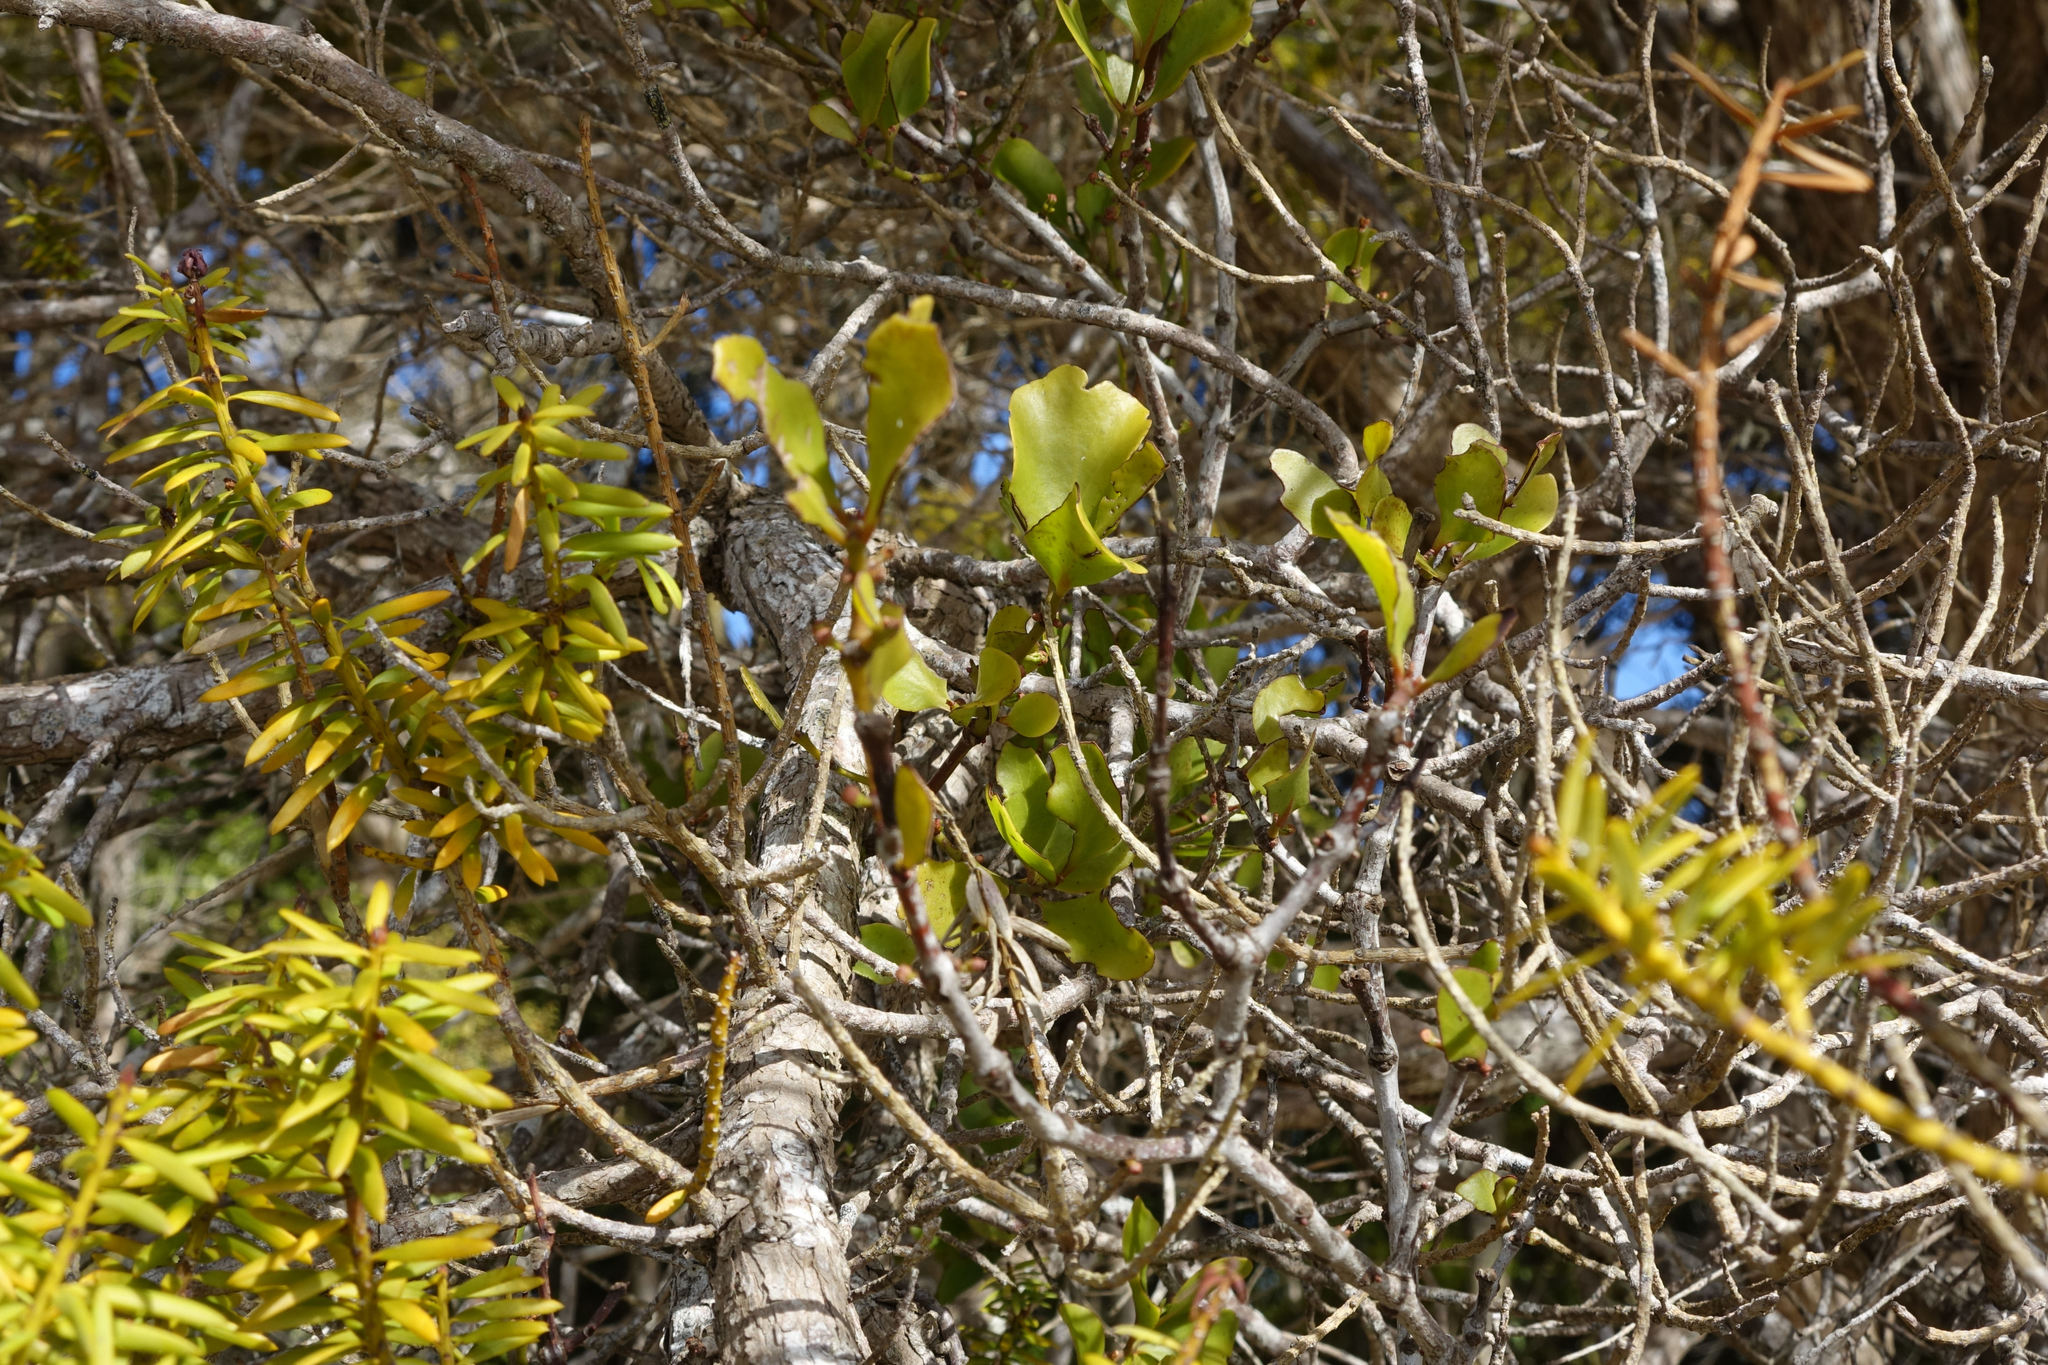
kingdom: Plantae
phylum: Tracheophyta
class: Magnoliopsida
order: Santalales
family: Loranthaceae
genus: Ileostylus
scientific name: Ileostylus micranthus
